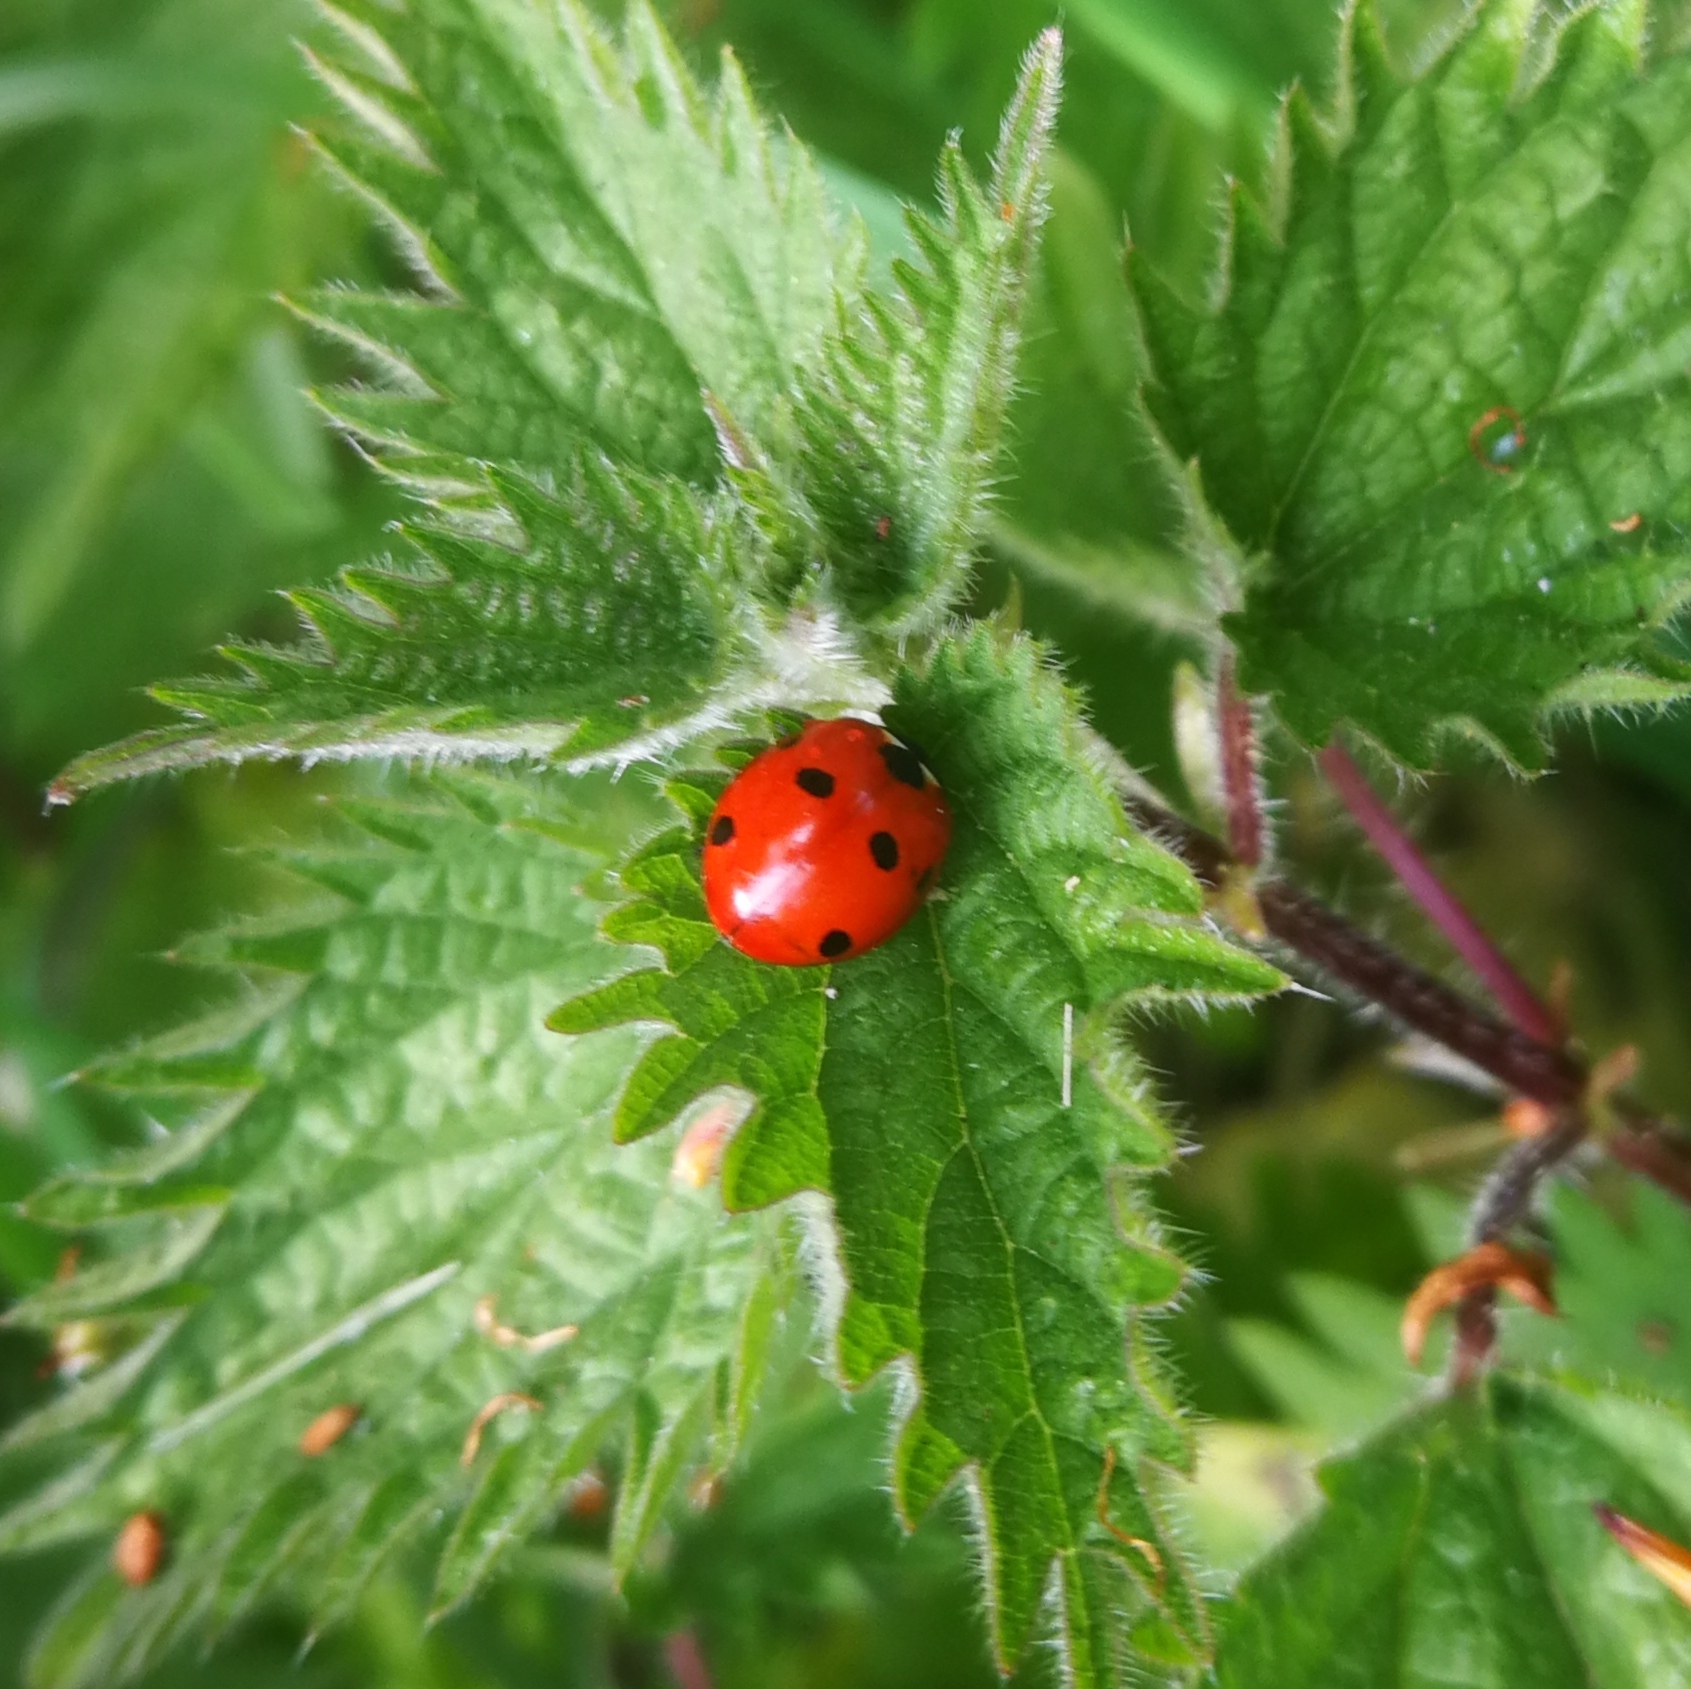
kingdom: Animalia
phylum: Arthropoda
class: Insecta
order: Coleoptera
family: Coccinellidae
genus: Coccinella
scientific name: Coccinella septempunctata
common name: Sevenspotted lady beetle
